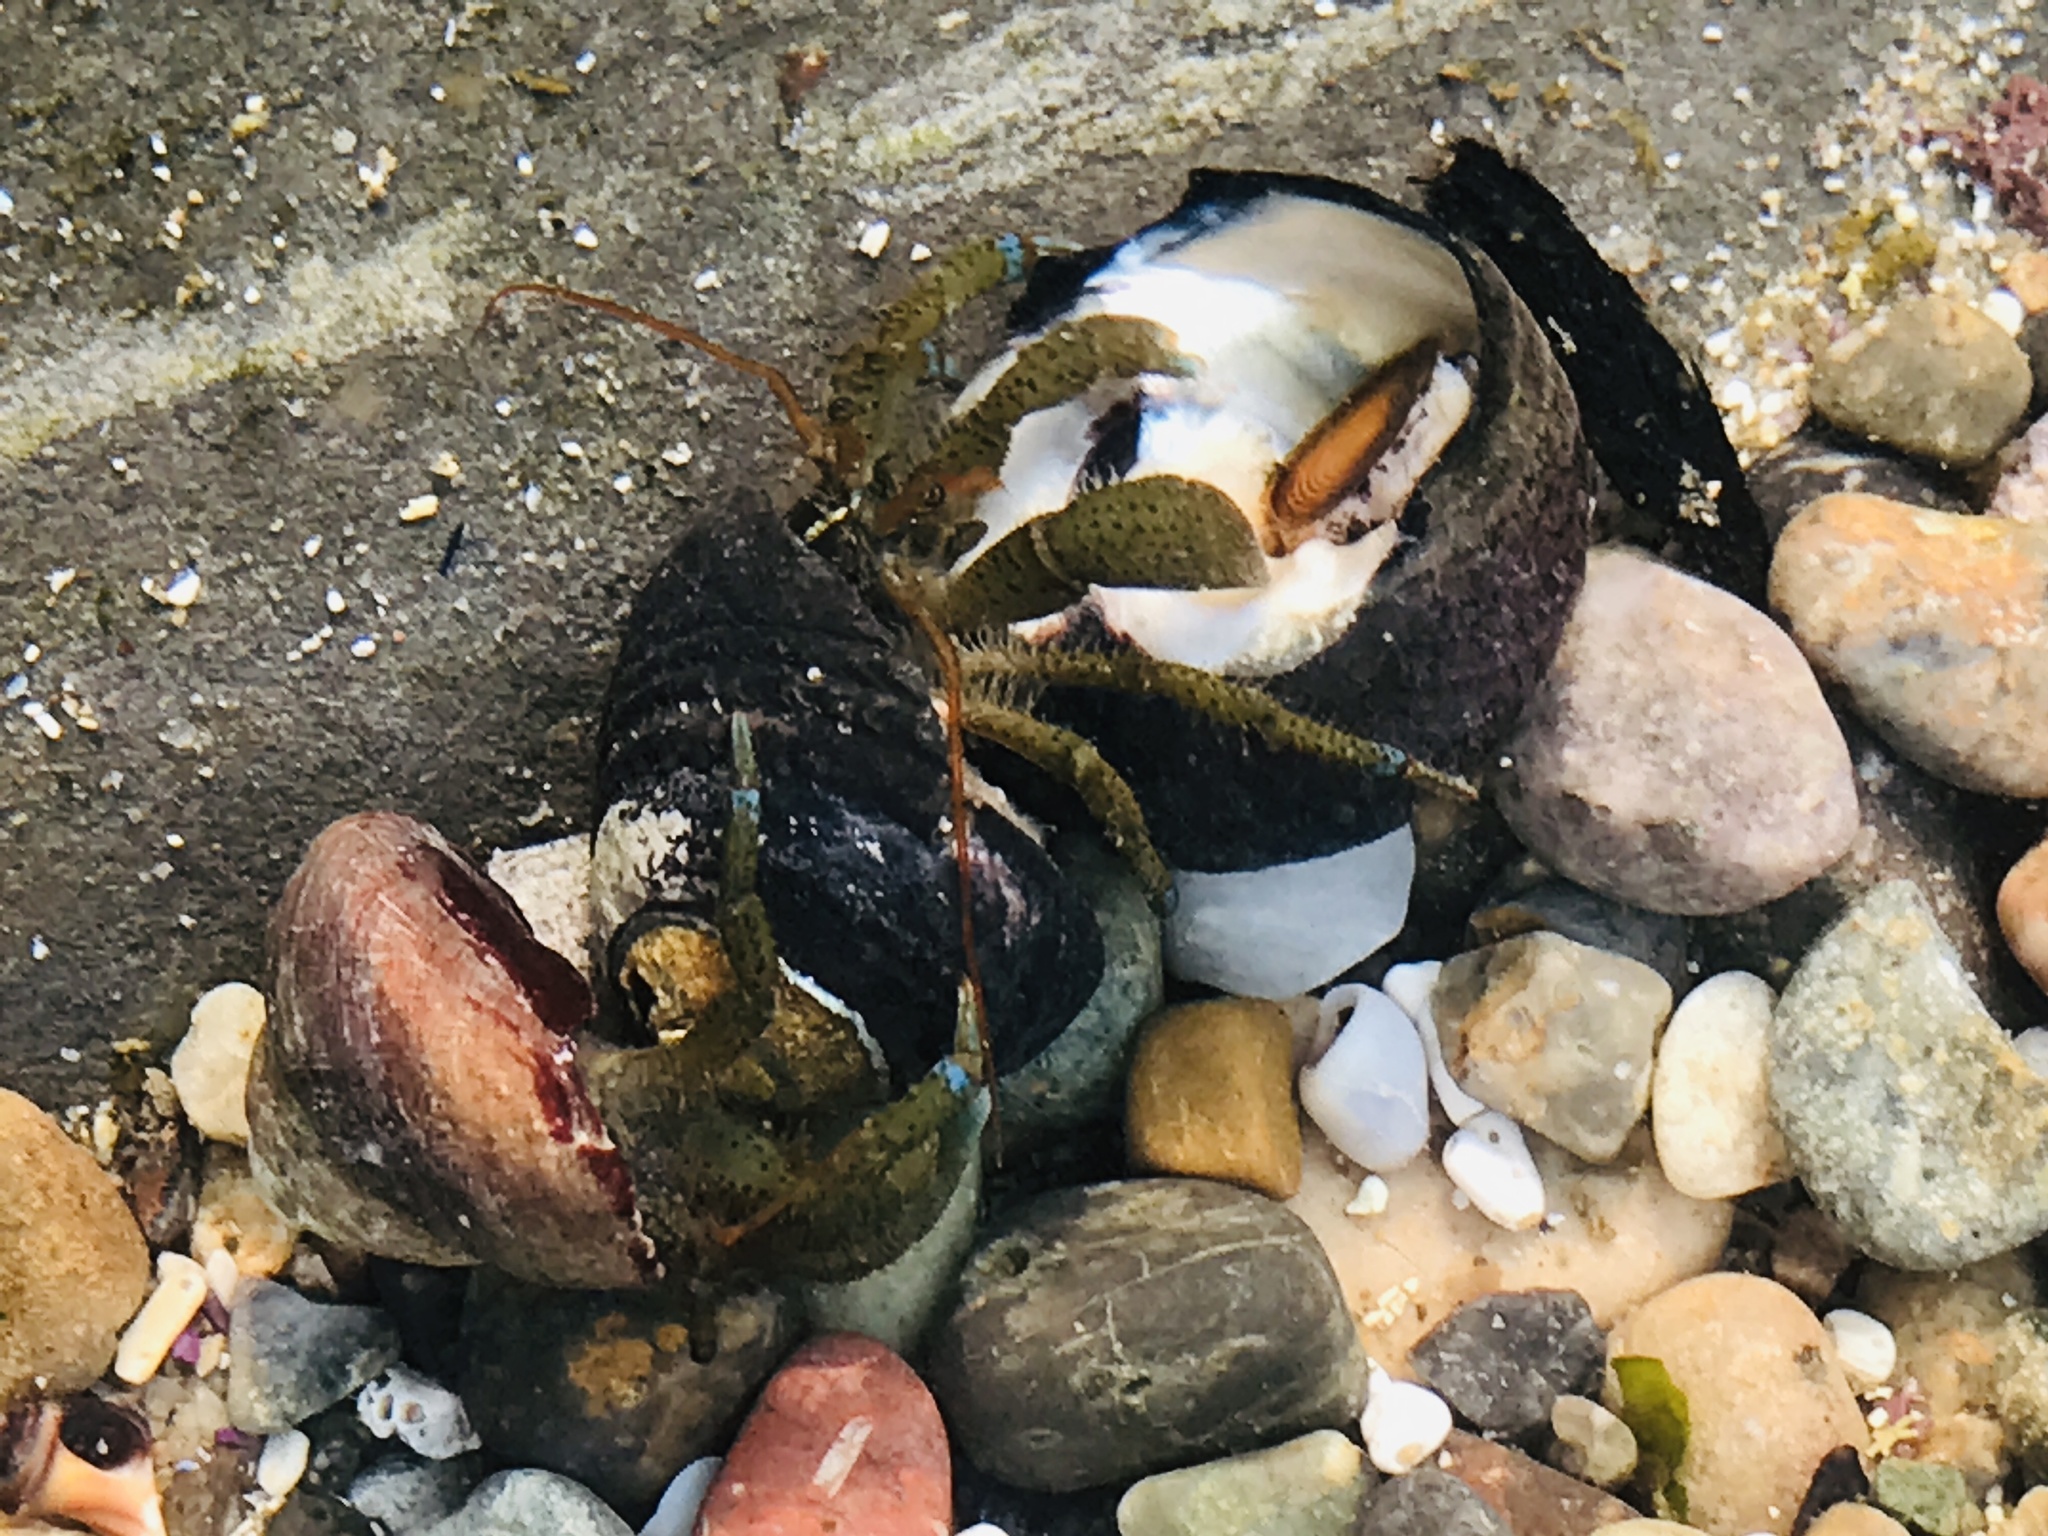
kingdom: Animalia
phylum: Arthropoda
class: Malacostraca
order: Decapoda
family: Paguridae
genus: Pagurus
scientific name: Pagurus samuelis
